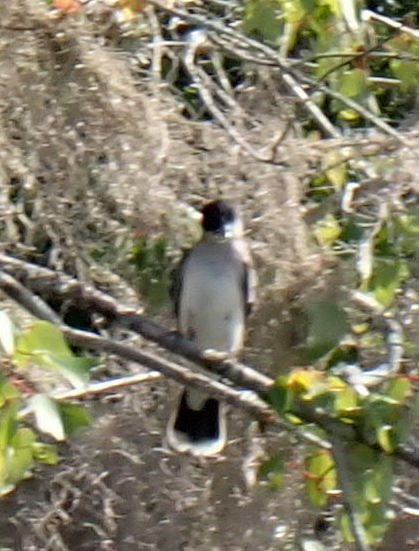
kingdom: Animalia
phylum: Chordata
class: Aves
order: Passeriformes
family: Tyrannidae
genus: Tyrannus
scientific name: Tyrannus tyrannus
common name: Eastern kingbird
